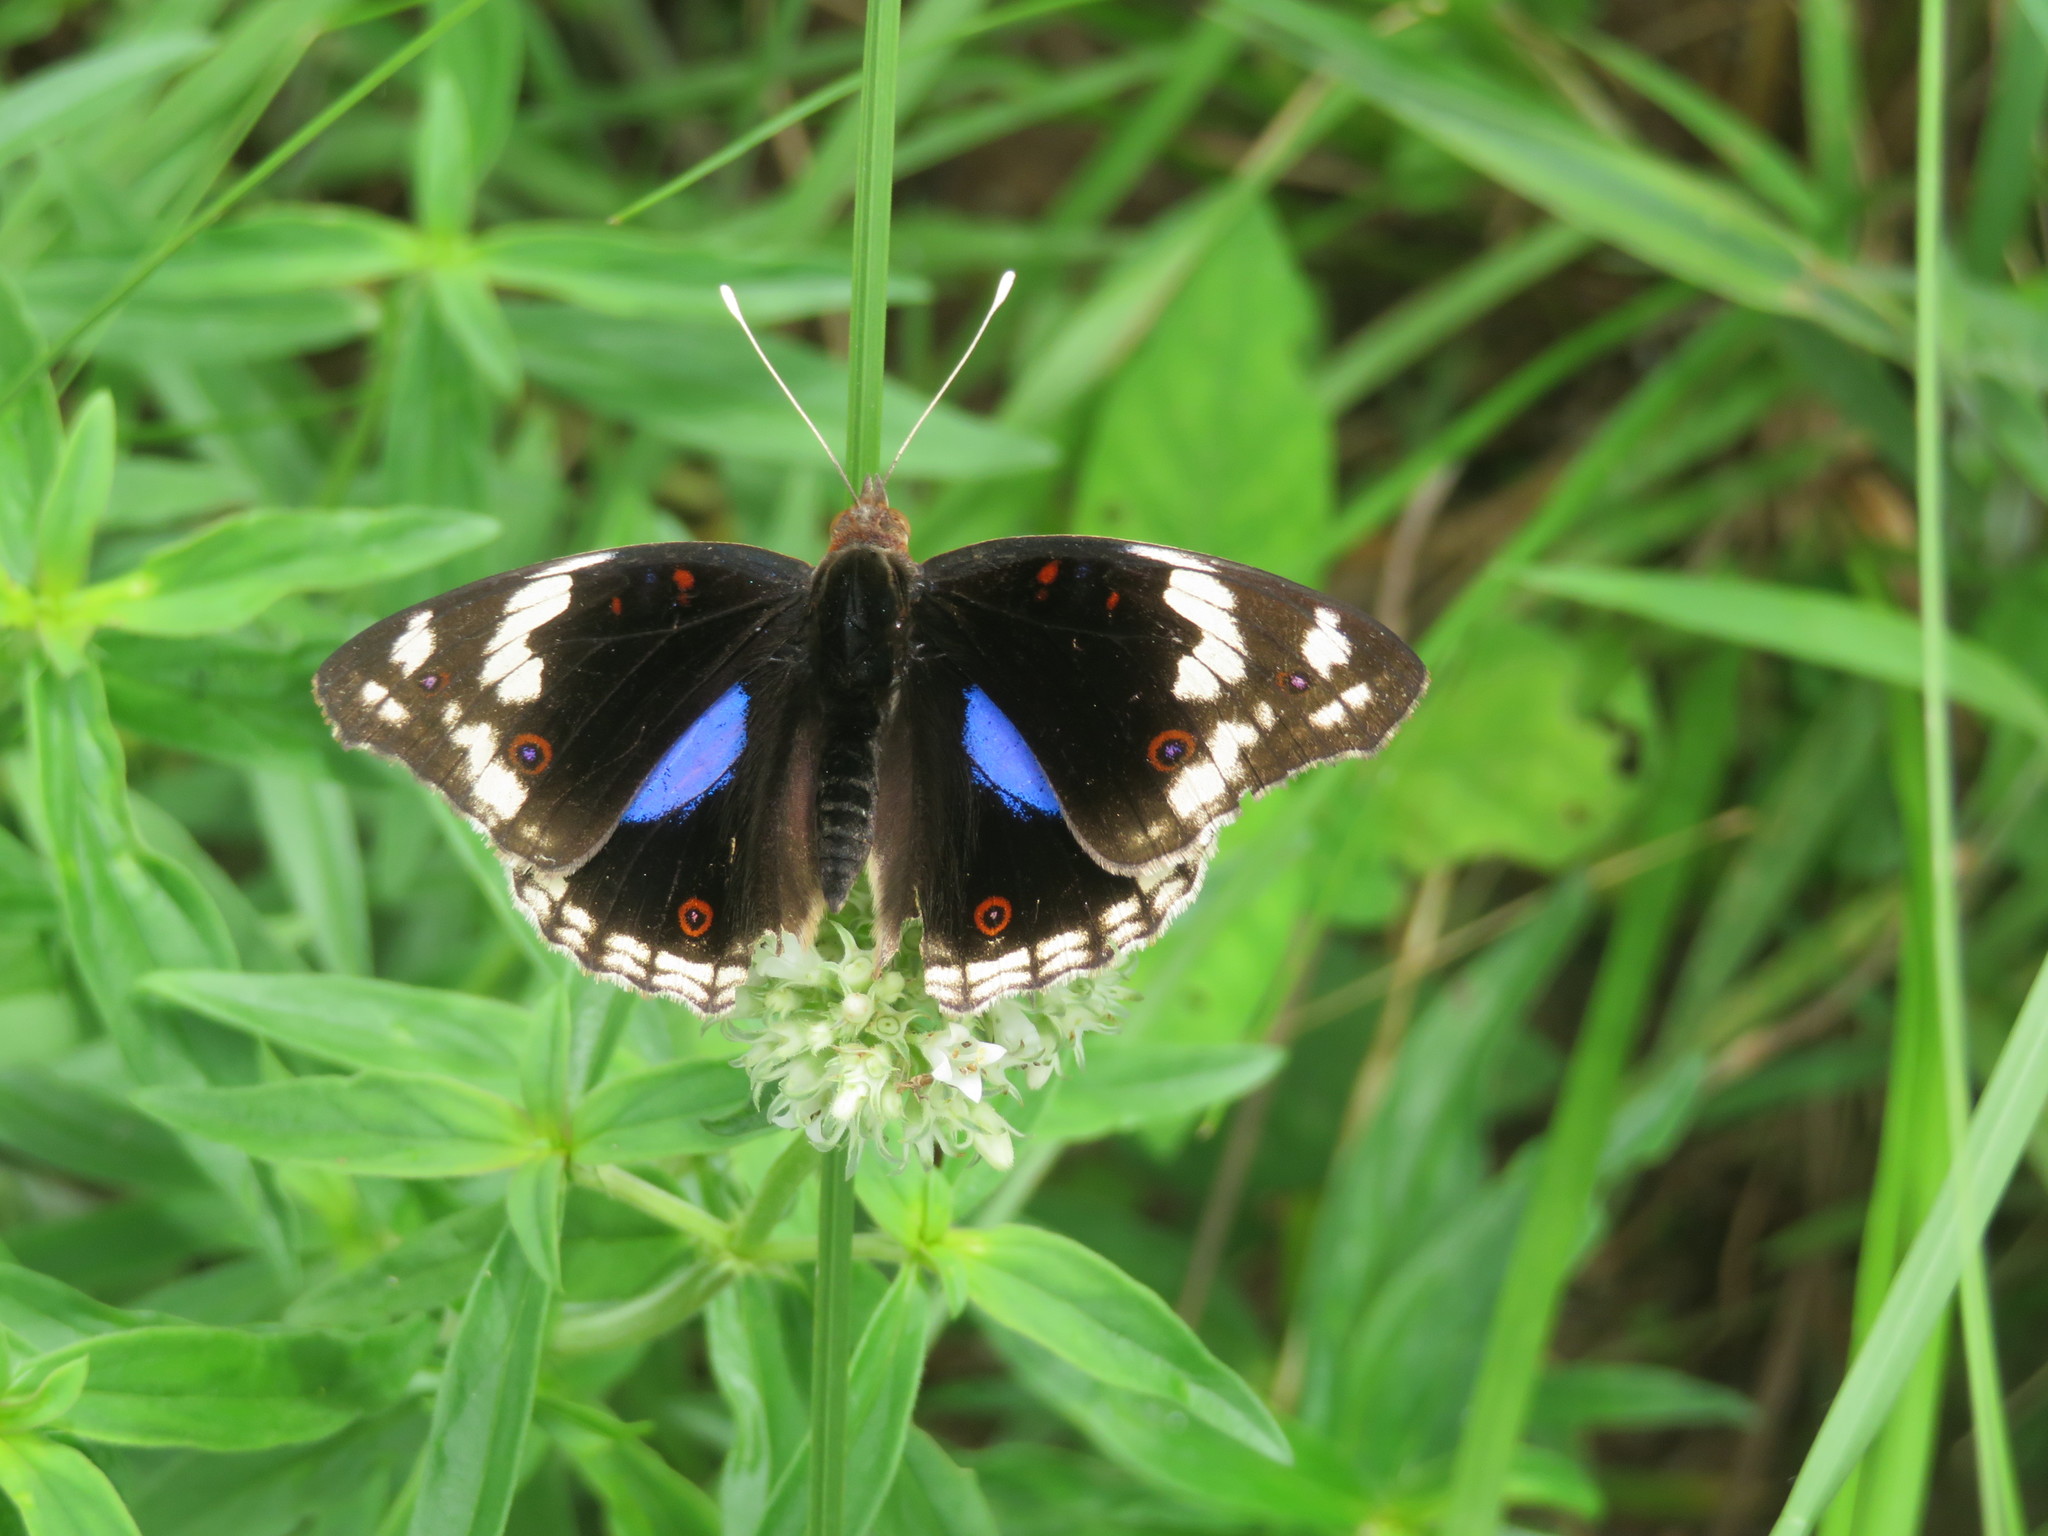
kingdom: Animalia
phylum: Arthropoda
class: Insecta
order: Lepidoptera
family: Nymphalidae
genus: Junonia
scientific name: Junonia oenone
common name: Dark blue pansy
